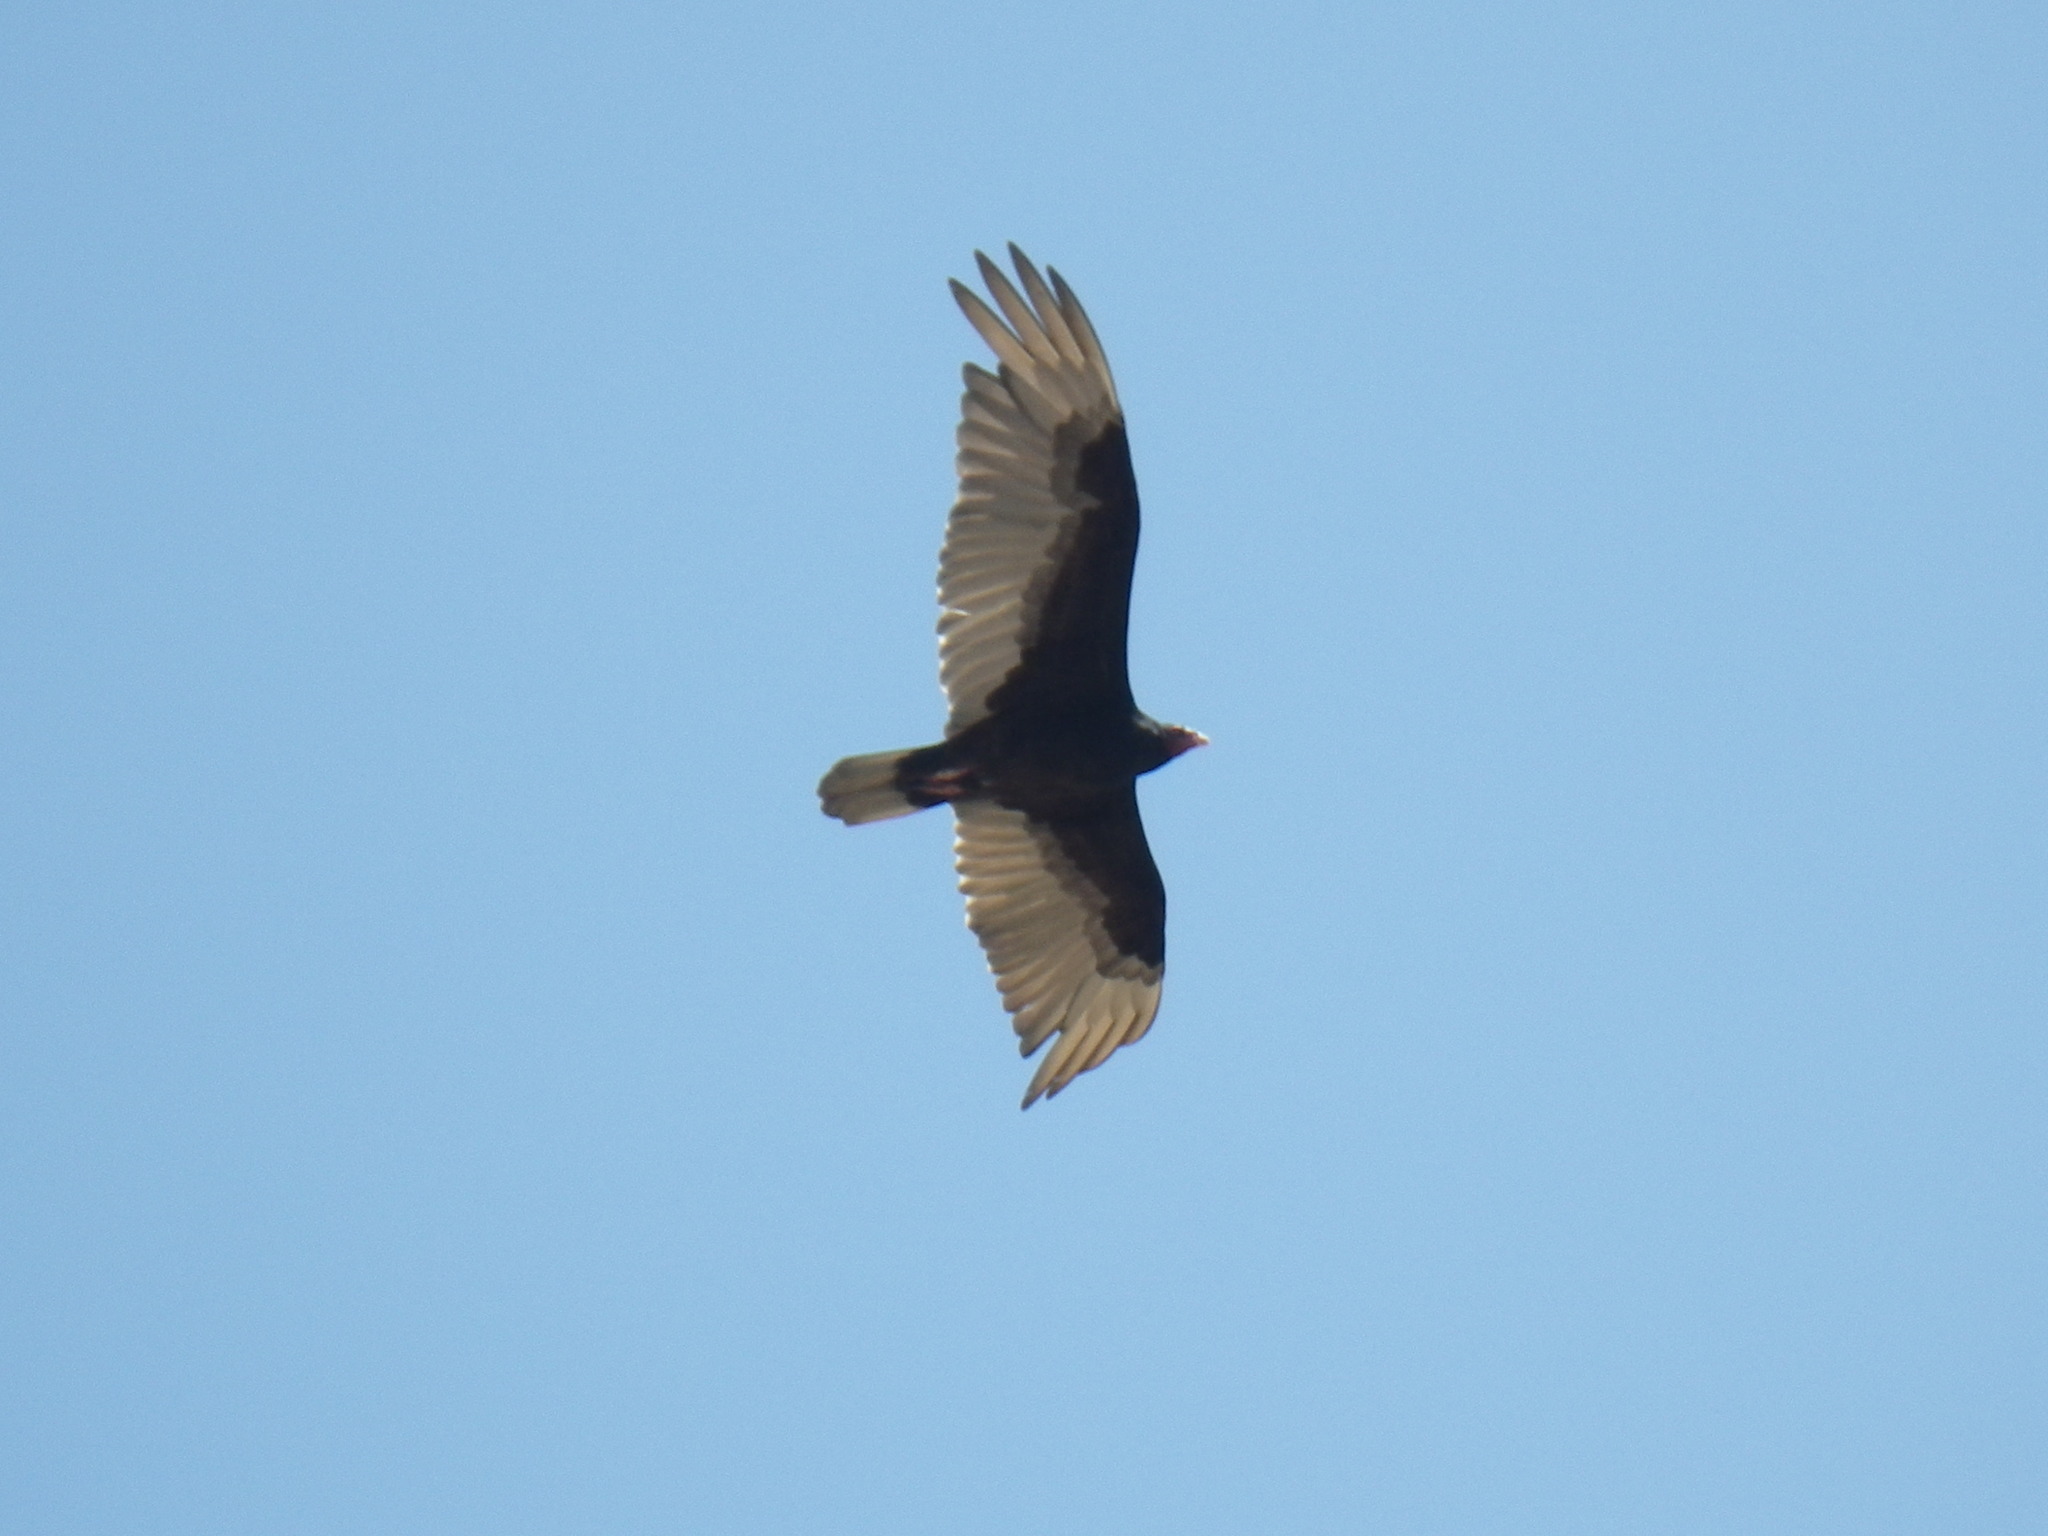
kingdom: Animalia
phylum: Chordata
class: Aves
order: Accipitriformes
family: Cathartidae
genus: Cathartes
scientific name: Cathartes aura
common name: Turkey vulture
